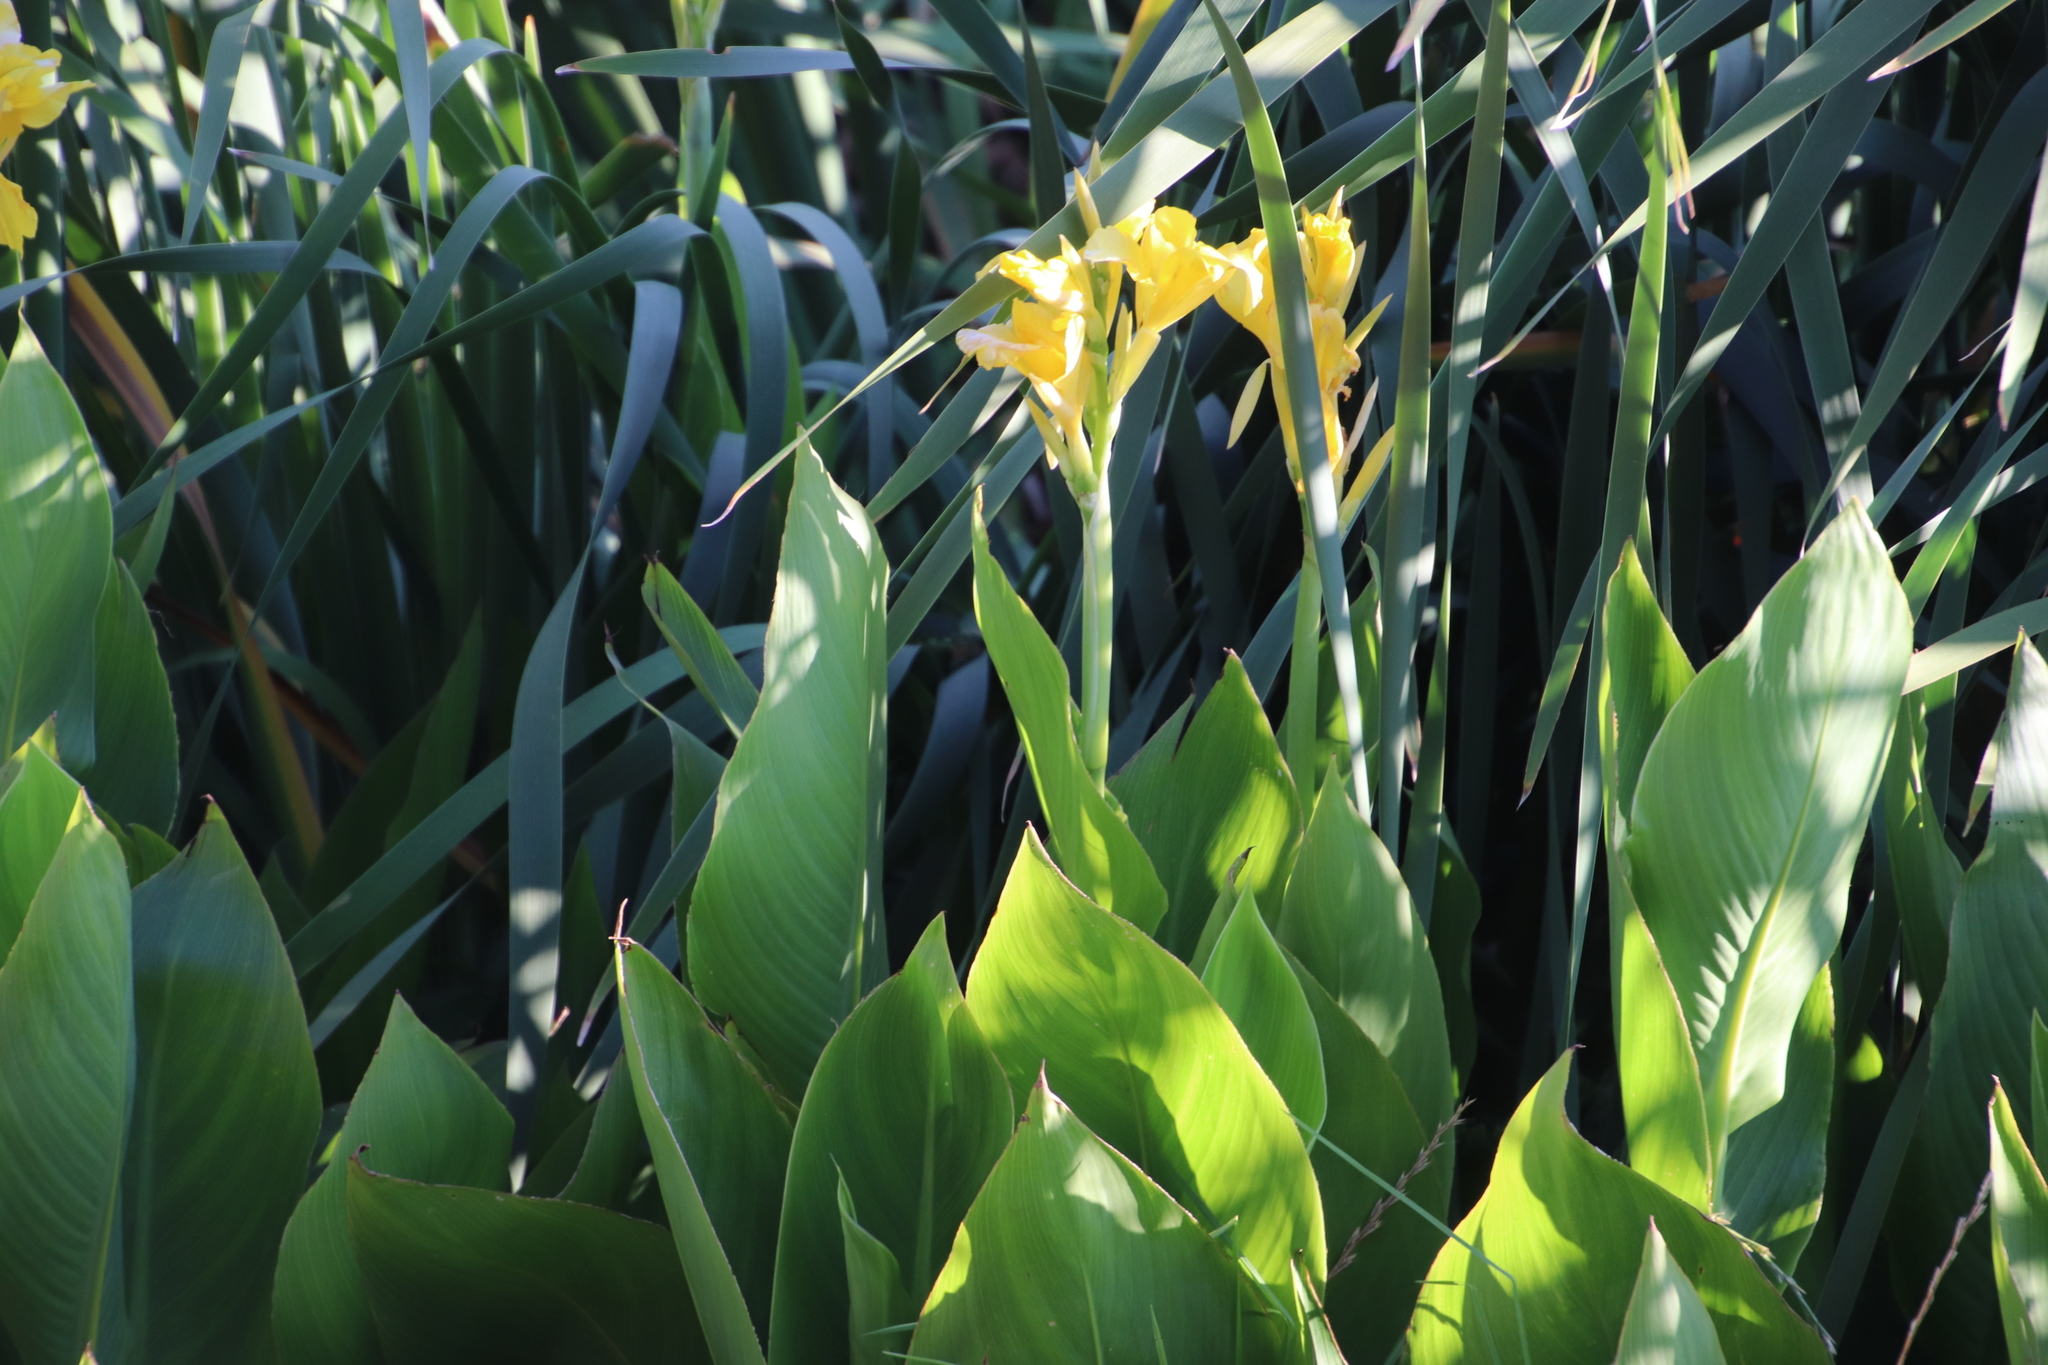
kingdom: Plantae
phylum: Tracheophyta
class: Liliopsida
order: Zingiberales
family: Cannaceae
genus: Canna
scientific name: Canna hybrida
